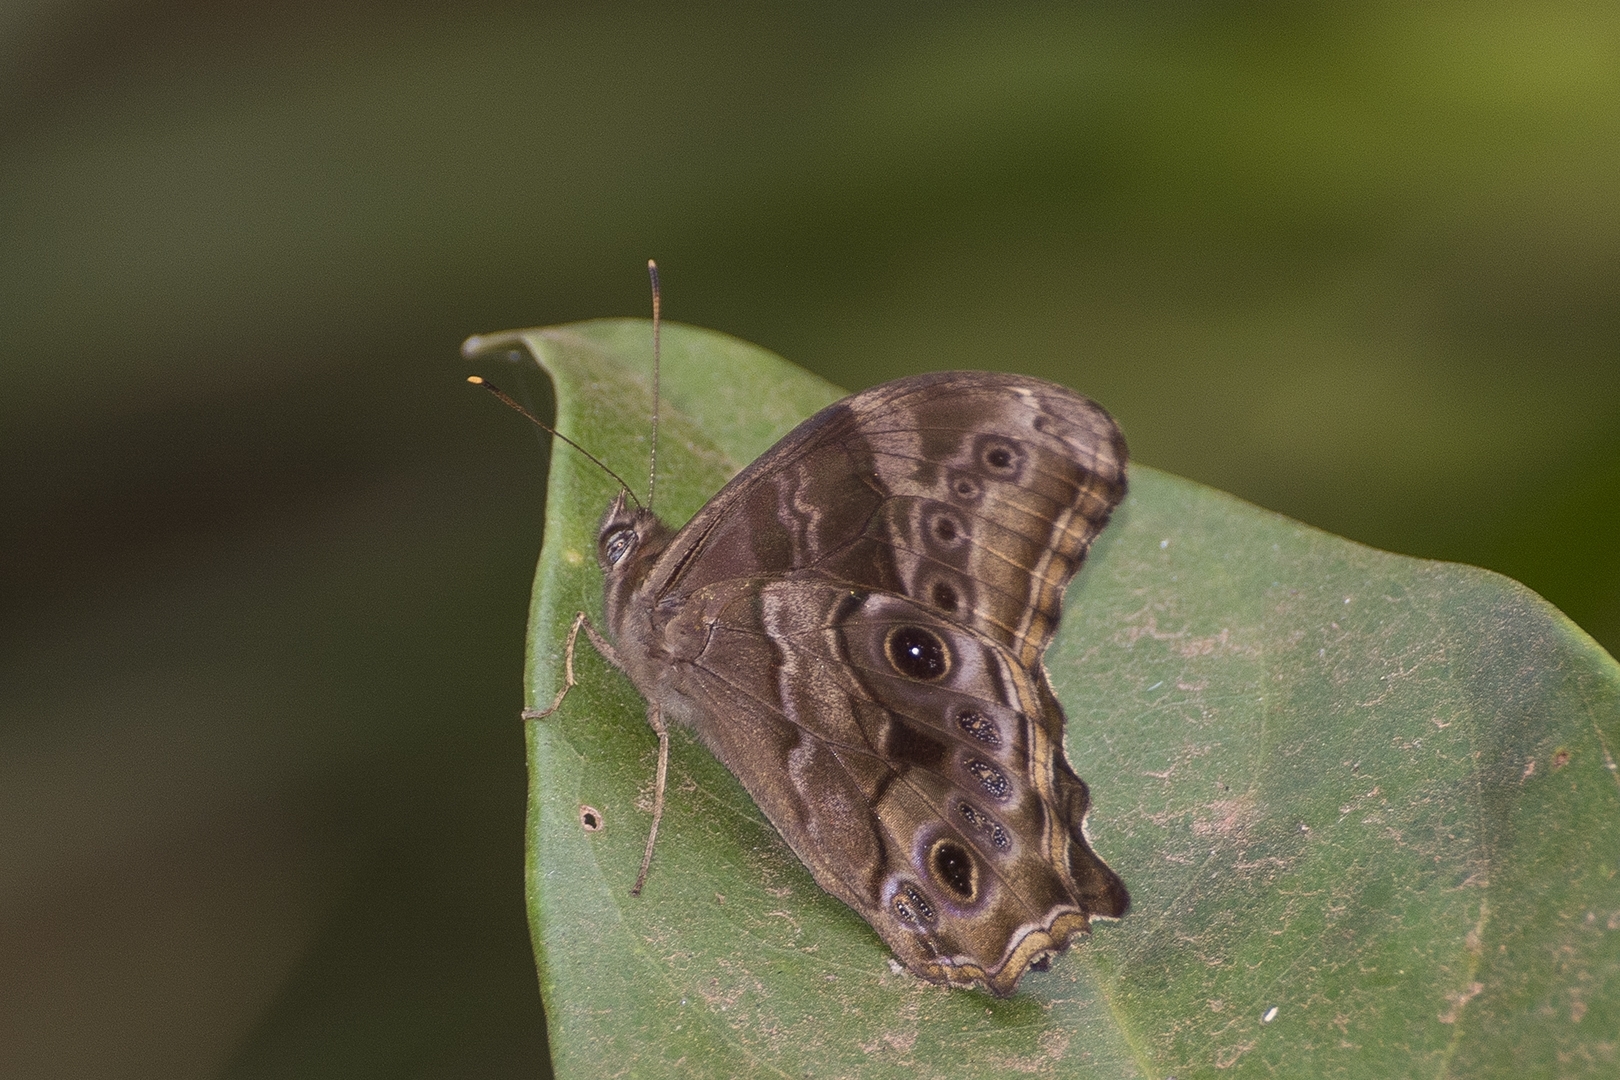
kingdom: Animalia
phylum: Arthropoda
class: Insecta
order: Lepidoptera
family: Nymphalidae
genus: Lethe
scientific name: Lethe drypetis
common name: Tamil treebrown
